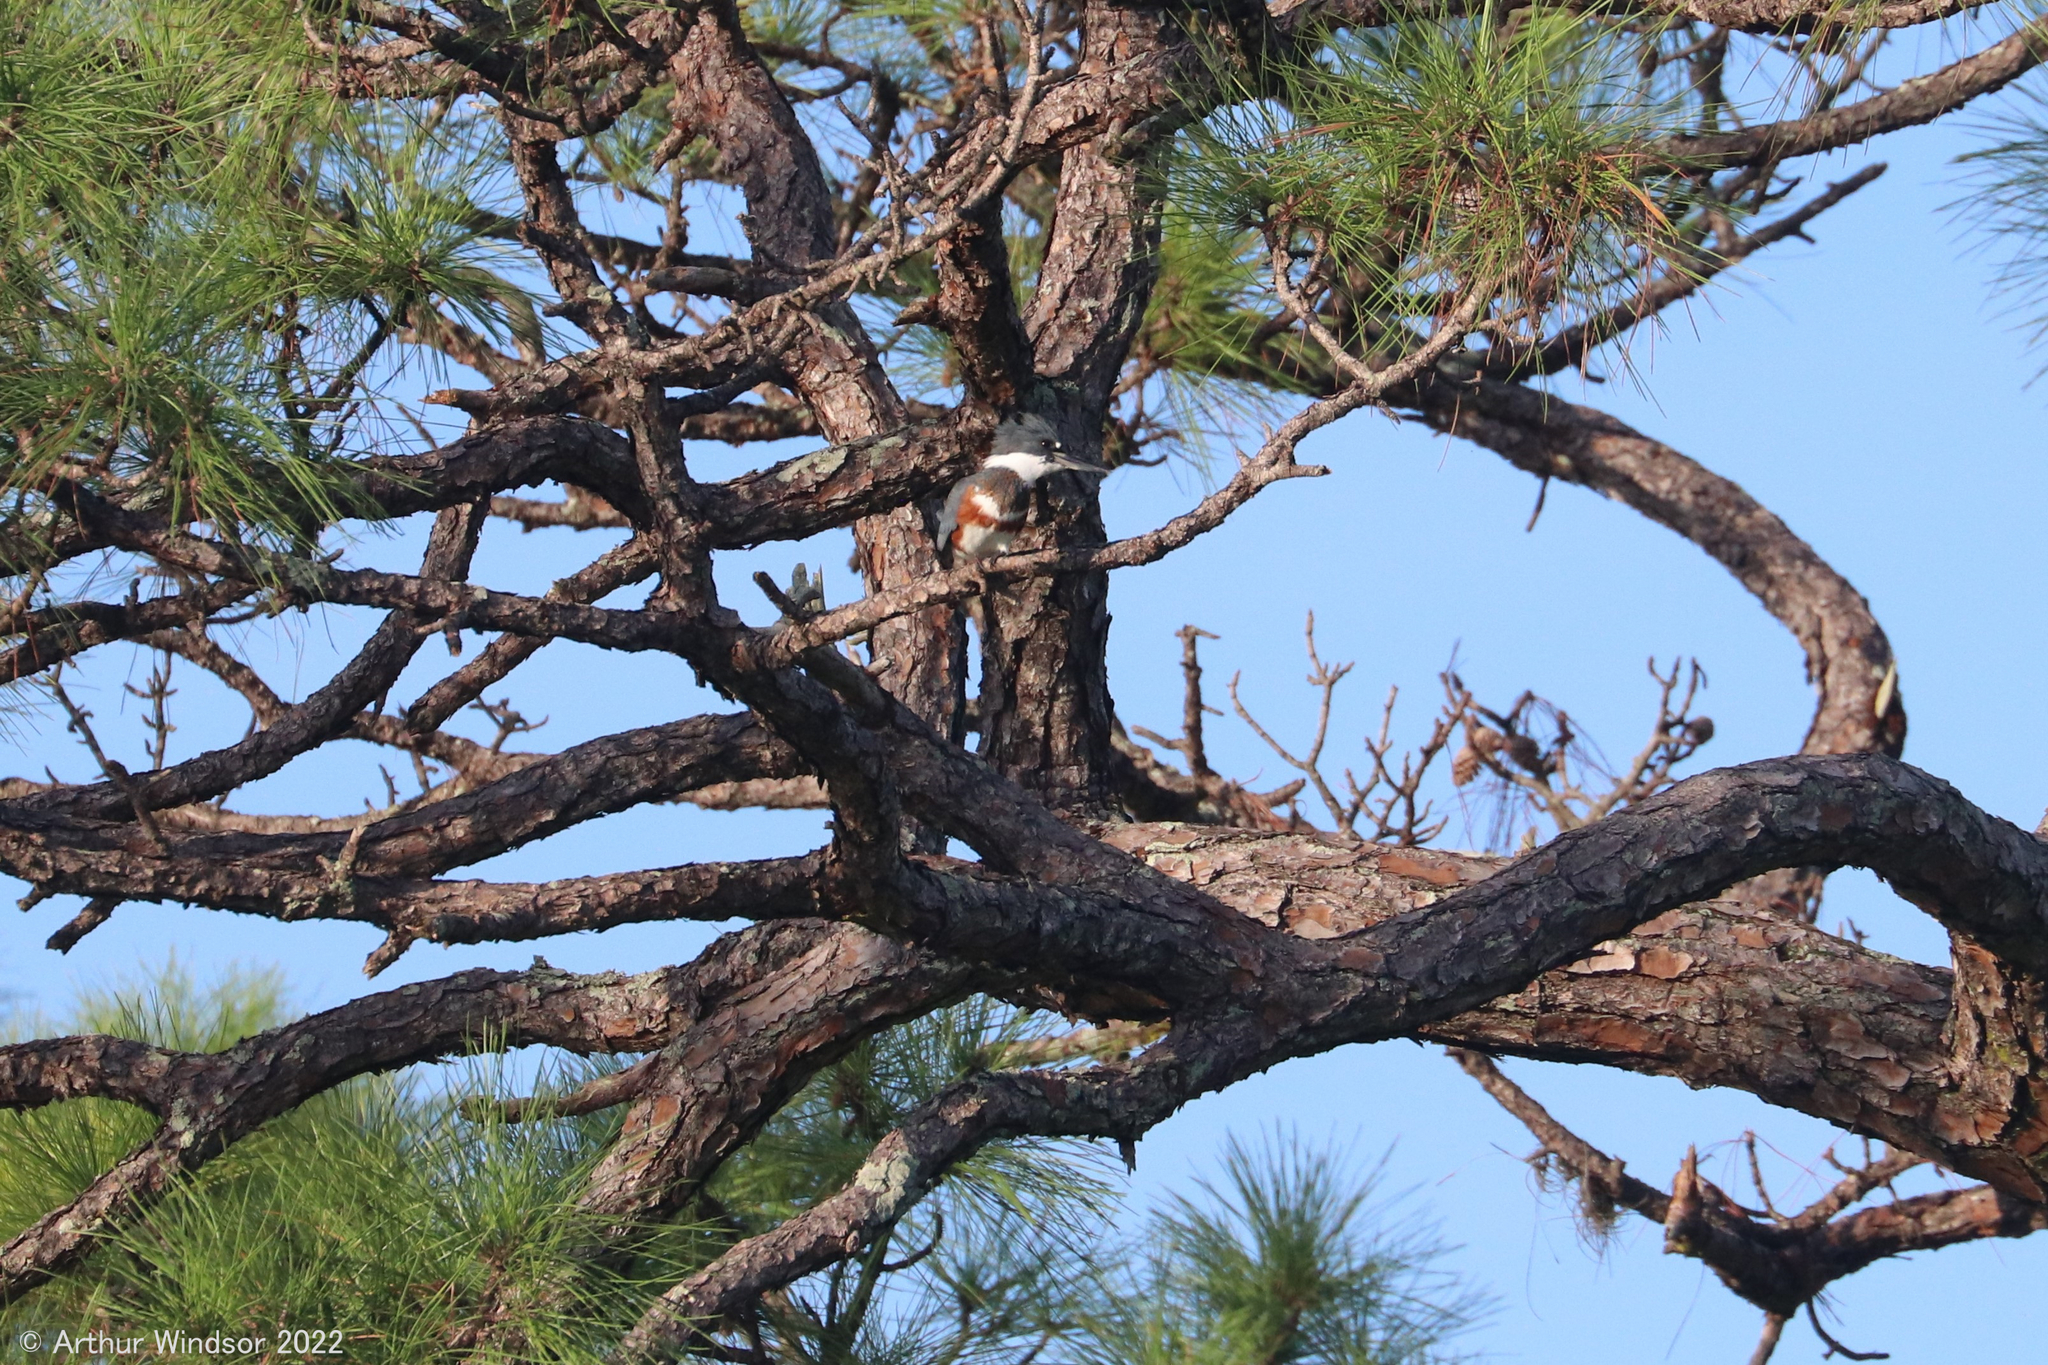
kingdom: Animalia
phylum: Chordata
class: Aves
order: Coraciiformes
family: Alcedinidae
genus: Megaceryle
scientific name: Megaceryle alcyon
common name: Belted kingfisher
